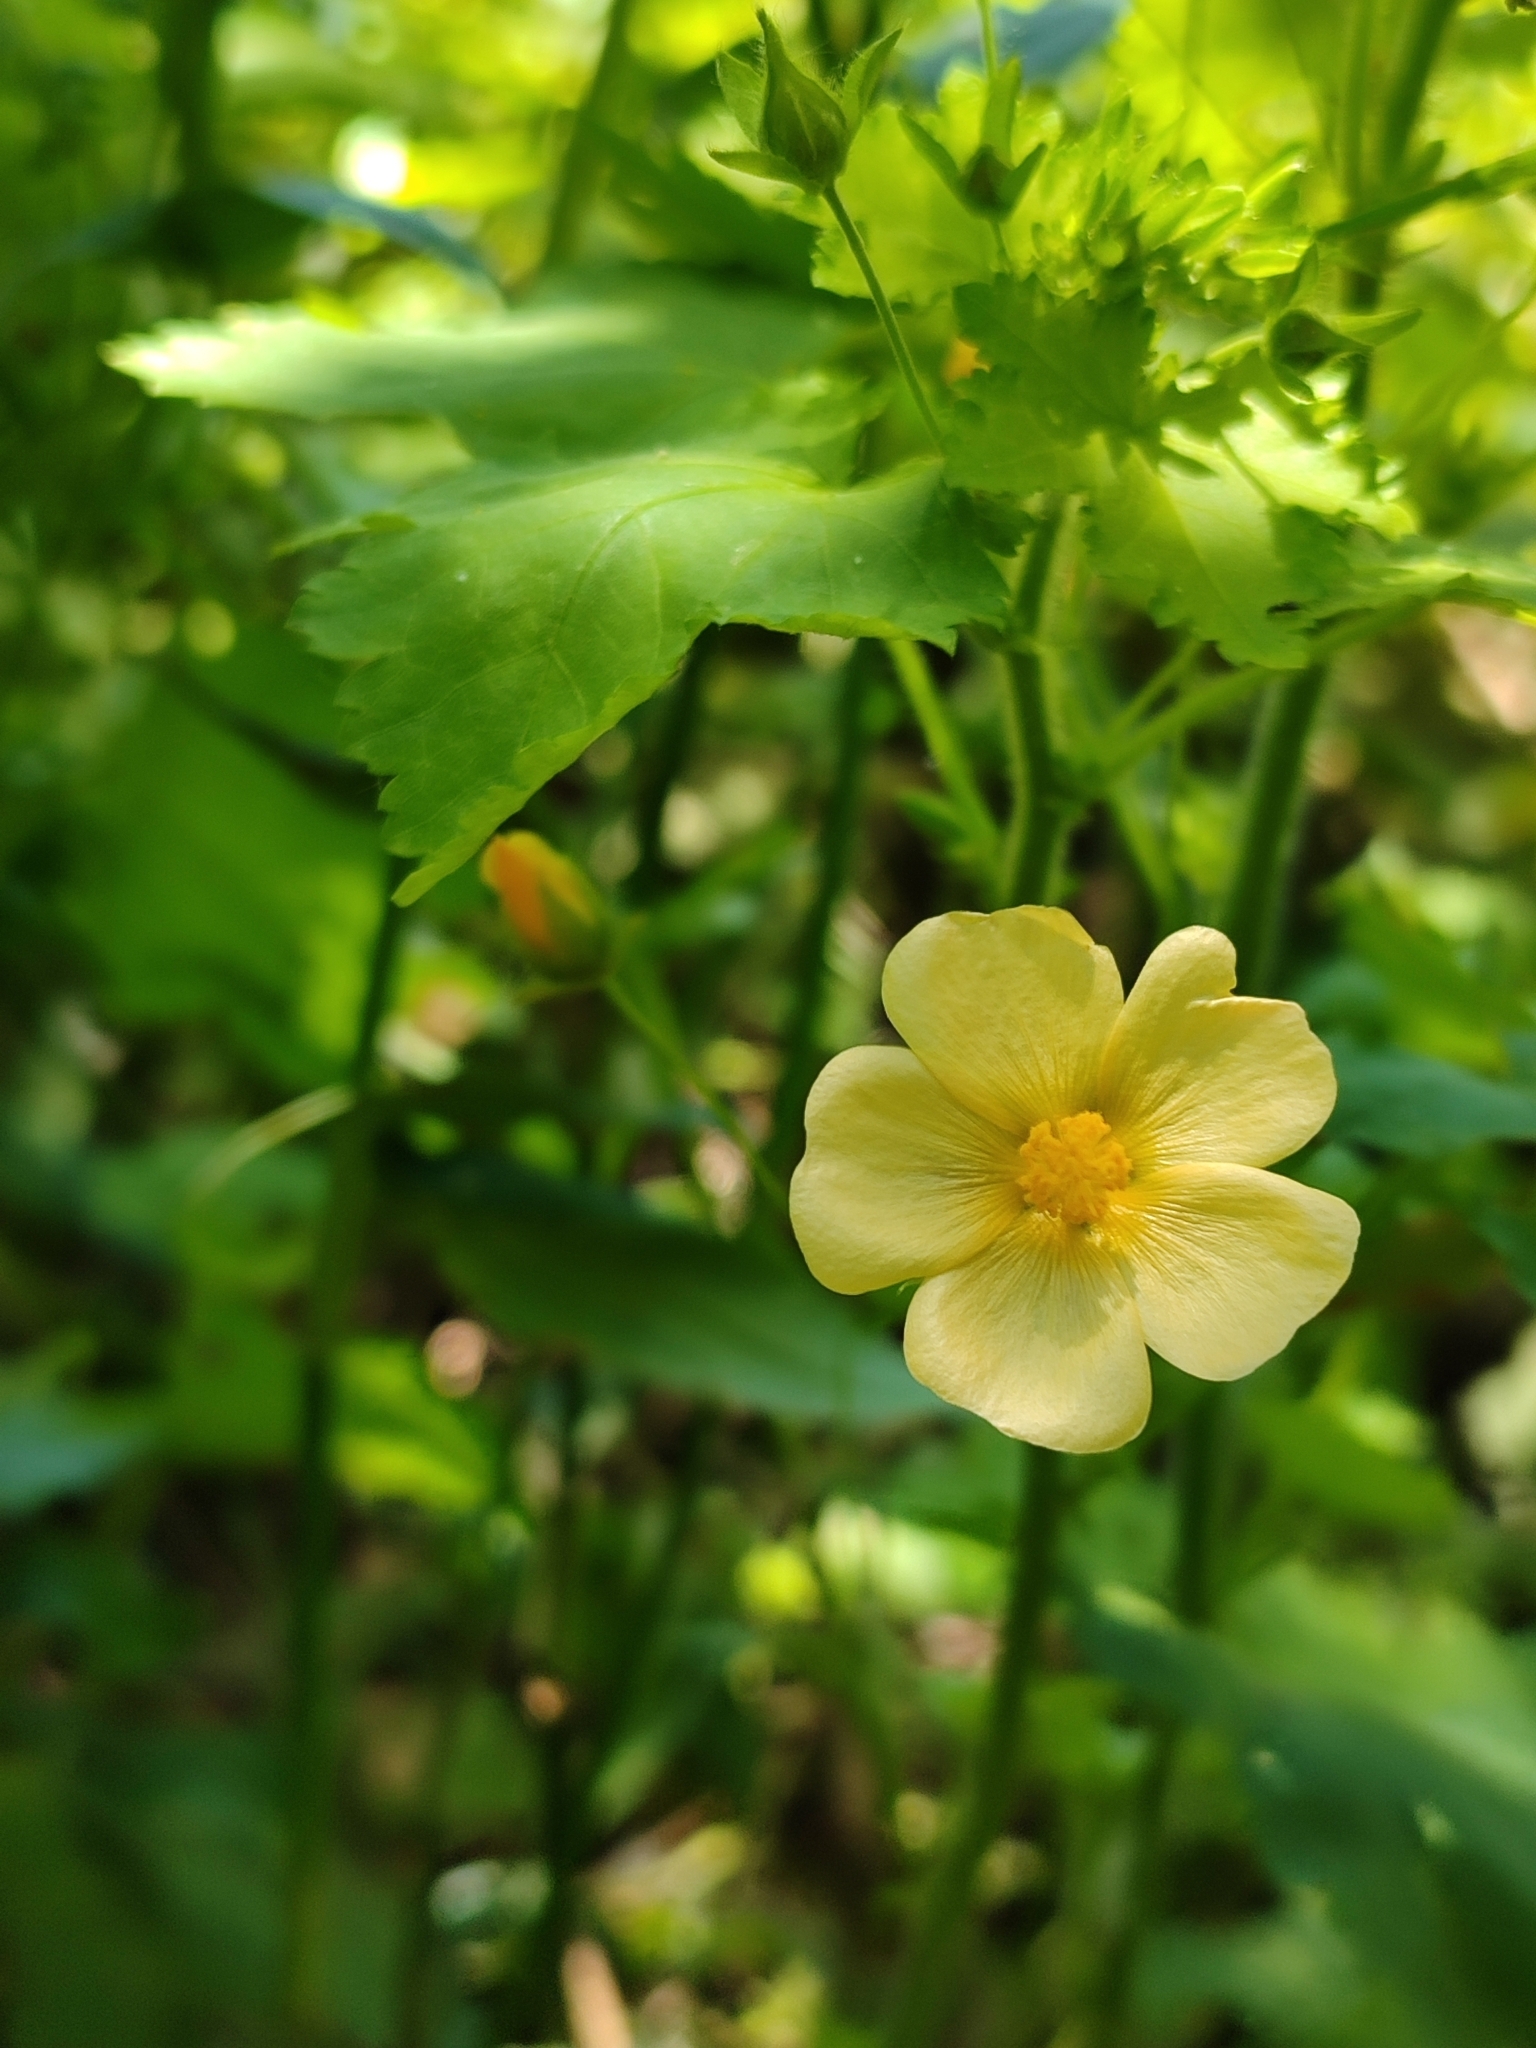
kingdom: Plantae
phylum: Tracheophyta
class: Magnoliopsida
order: Malvales
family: Malvaceae
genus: Modiolastrum
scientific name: Modiolastrum malvifolium
